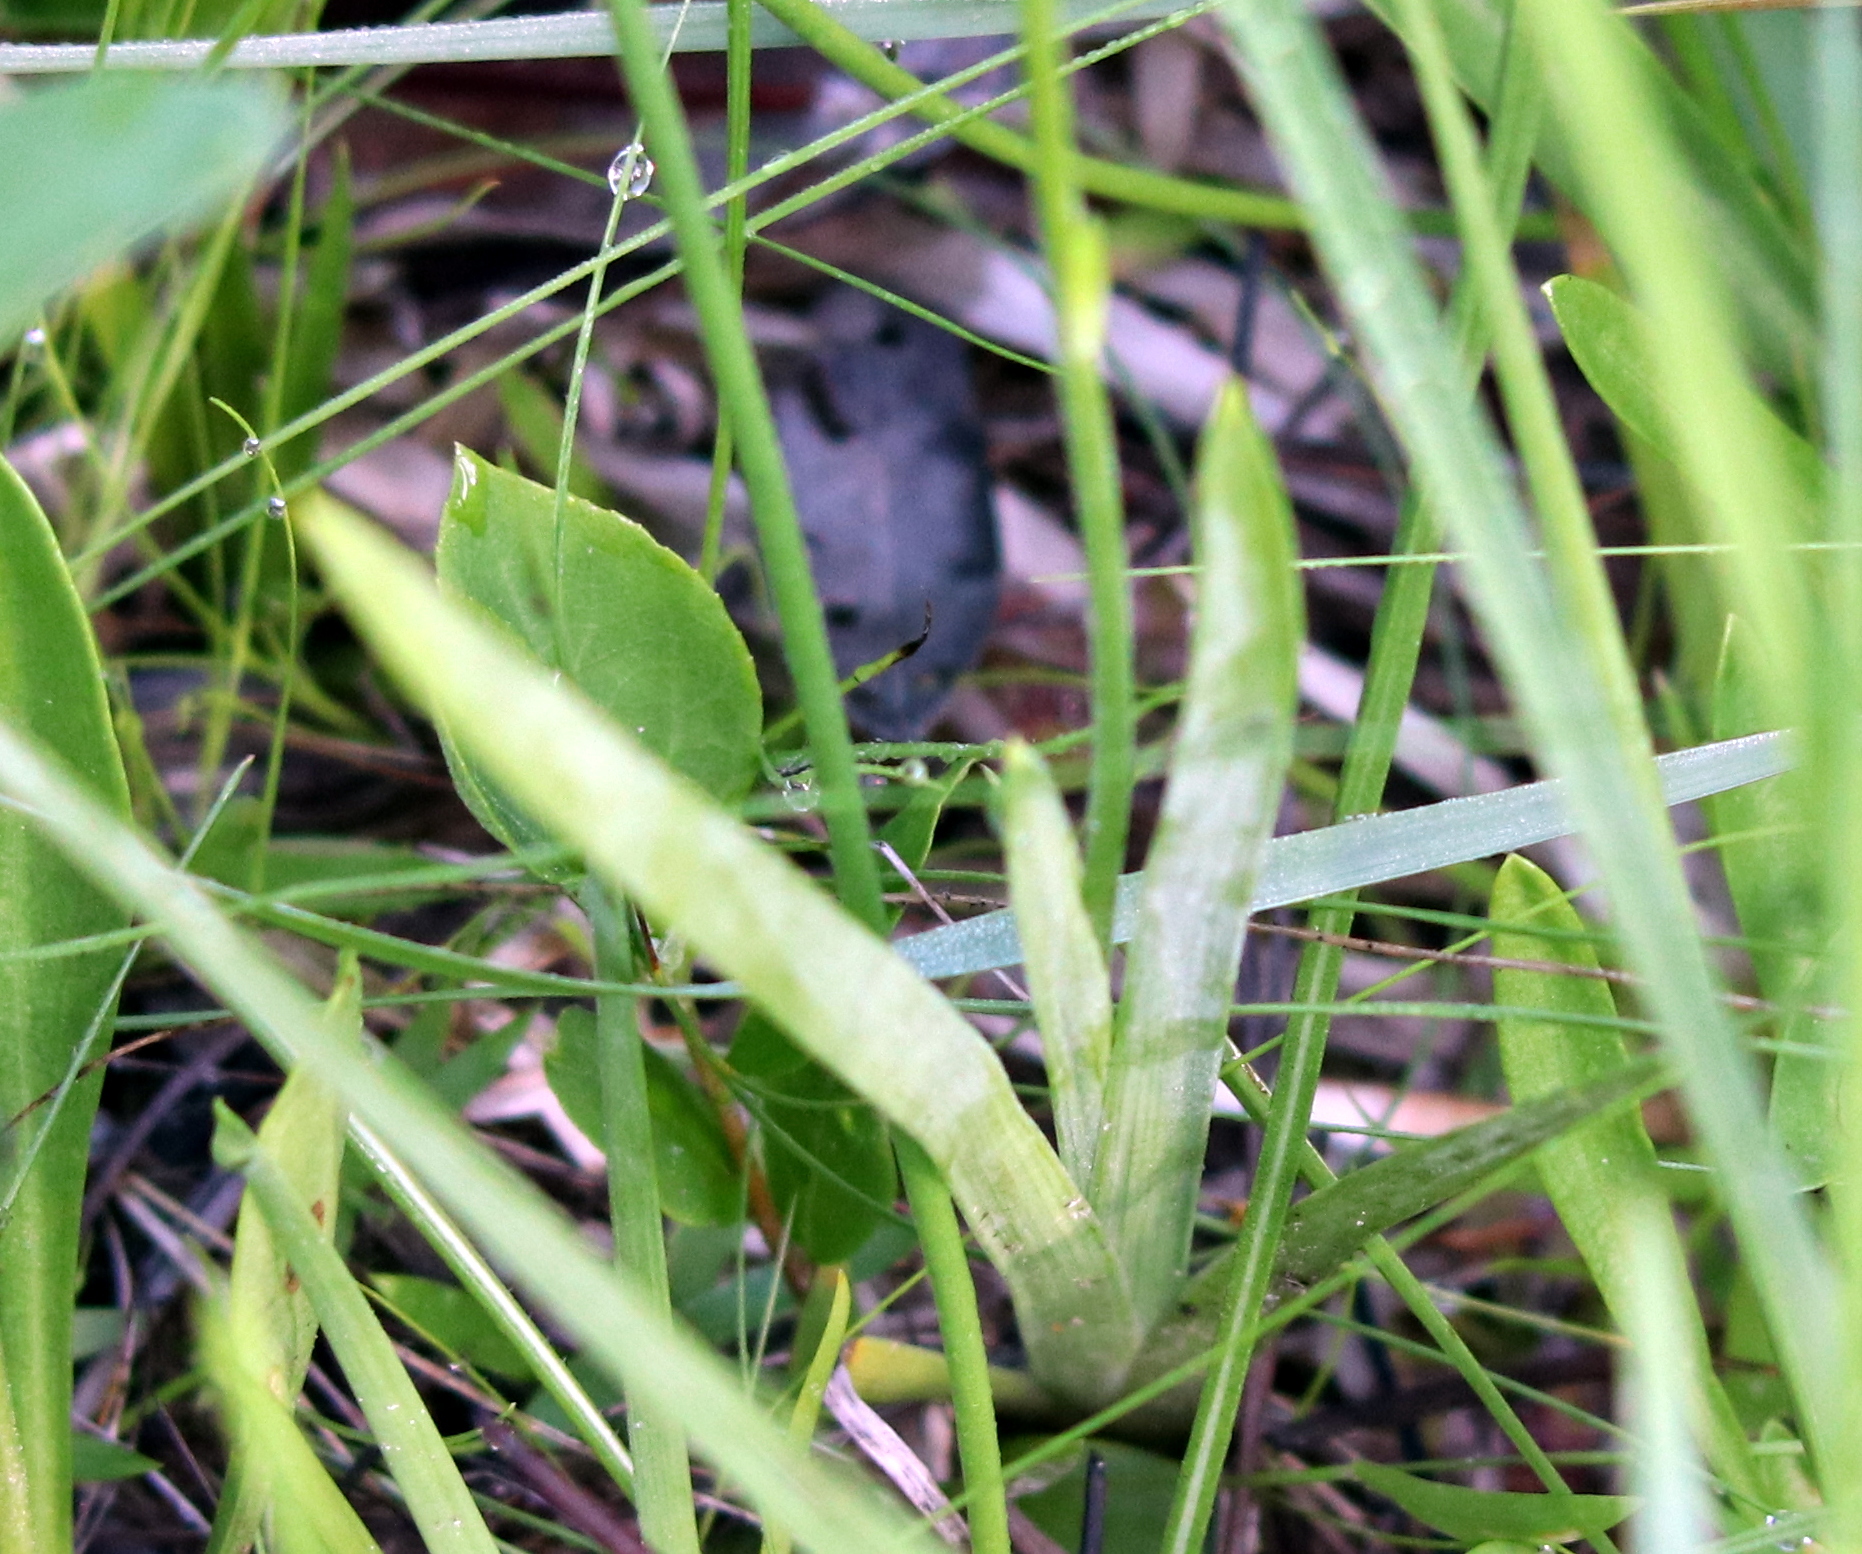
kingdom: Plantae
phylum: Tracheophyta
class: Liliopsida
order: Alismatales
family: Tofieldiaceae
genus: Triantha
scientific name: Triantha racemosa
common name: Coastal false asphodel
